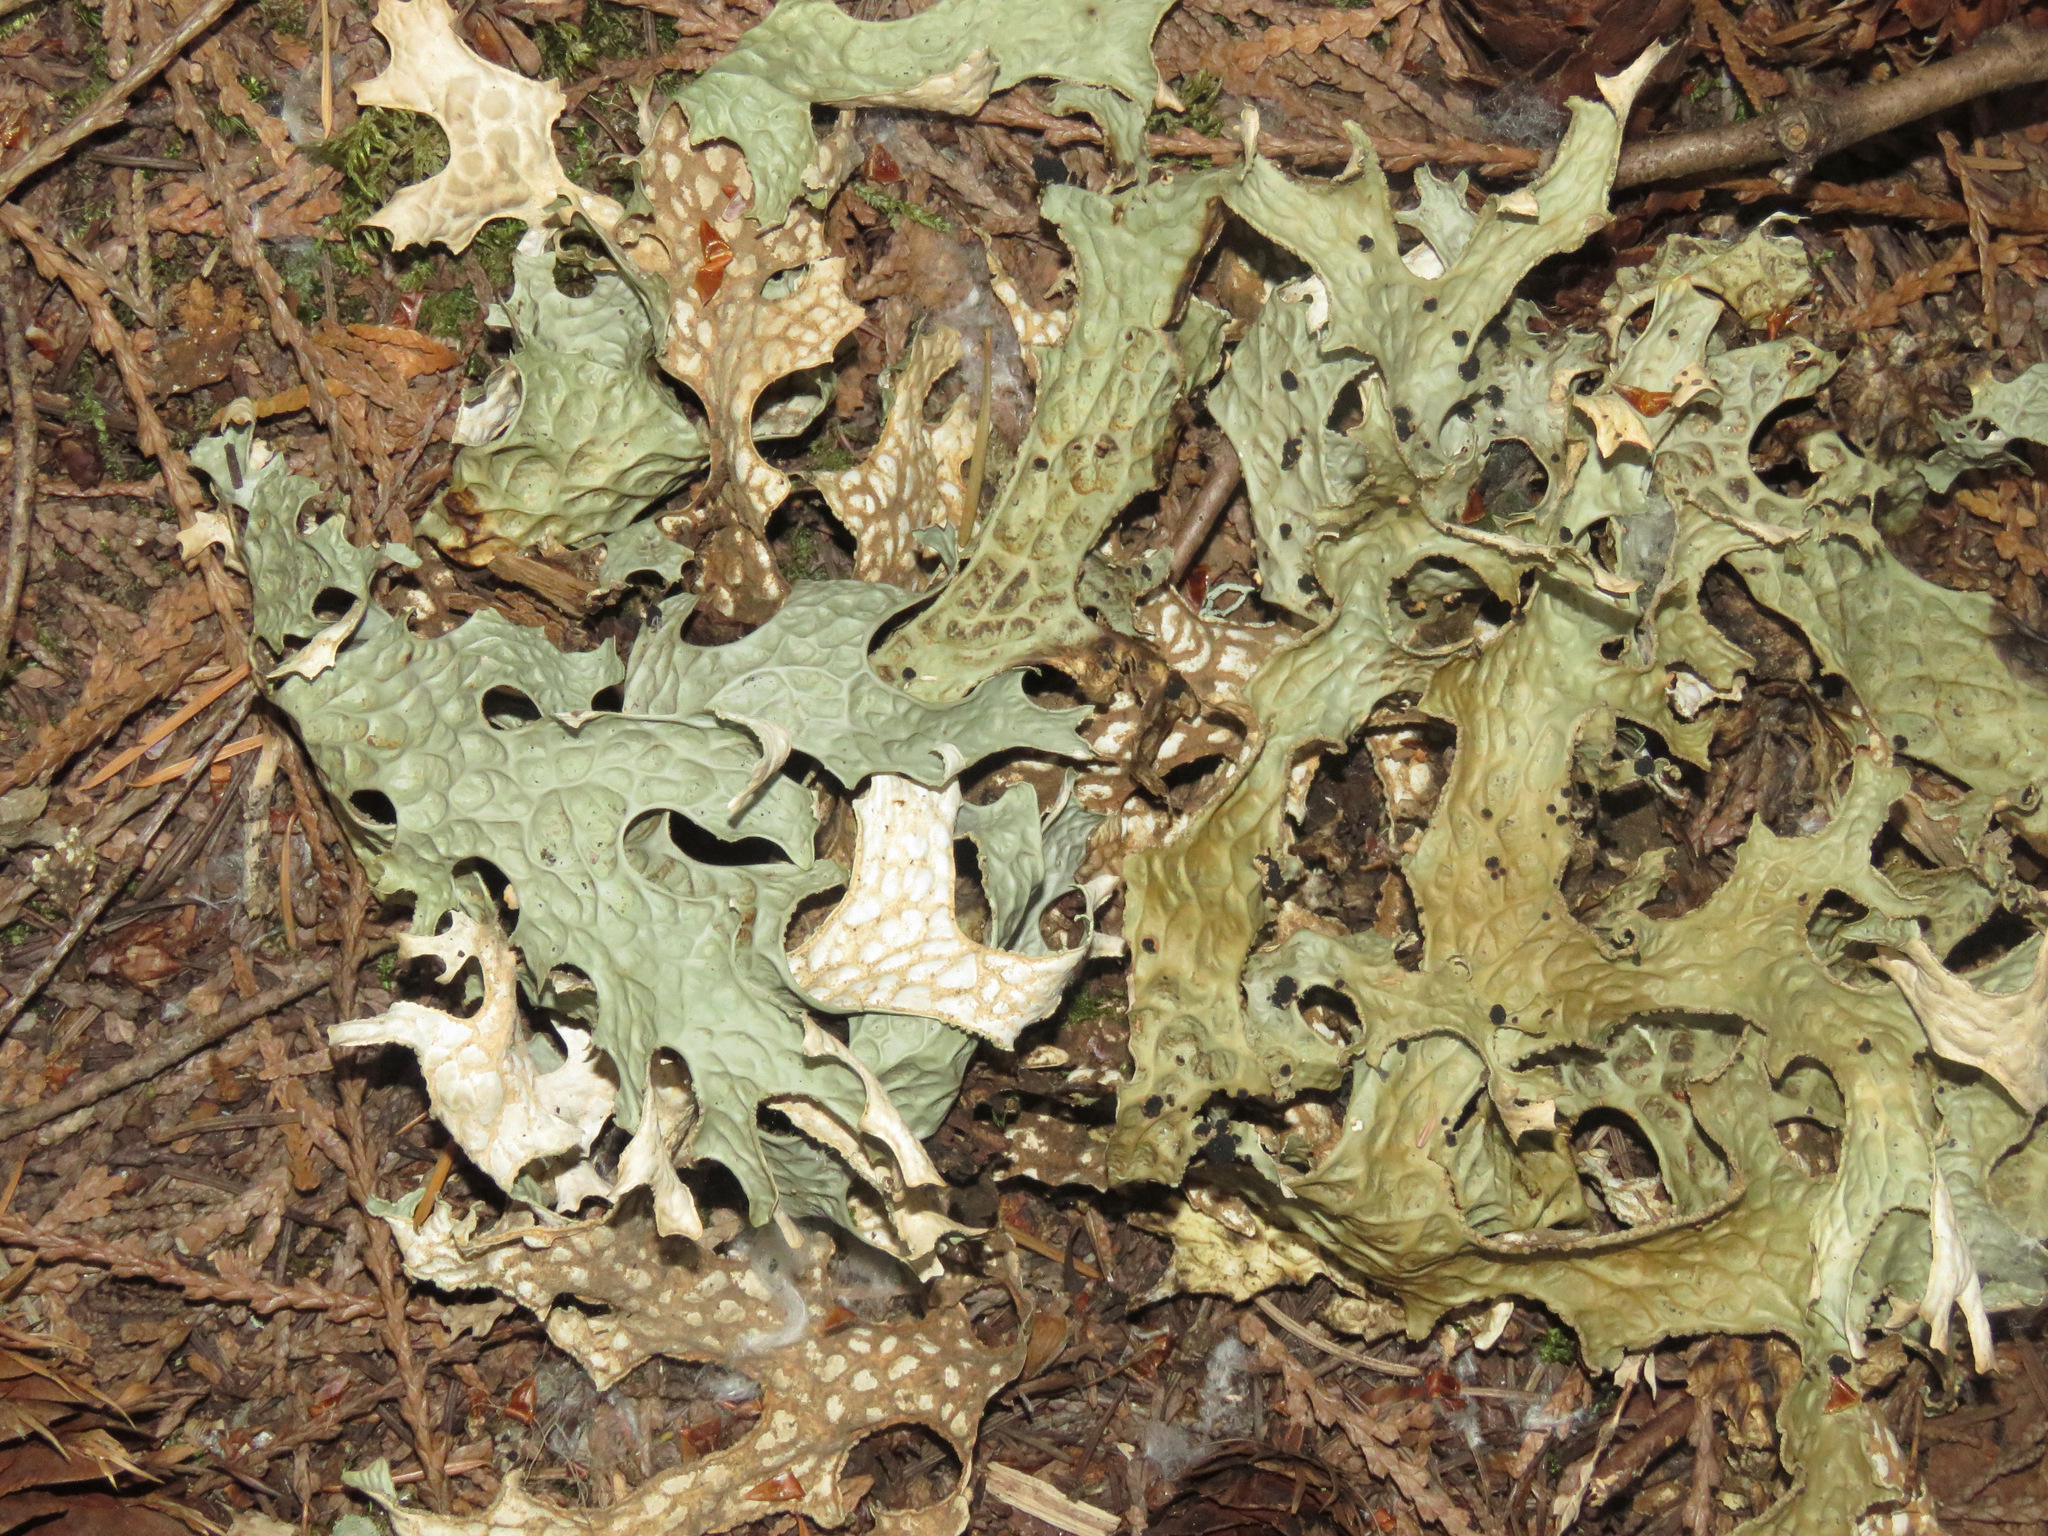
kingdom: Fungi
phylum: Ascomycota
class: Lecanoromycetes
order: Peltigerales
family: Lobariaceae
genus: Lobaria
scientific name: Lobaria pulmonaria
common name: Lungwort
